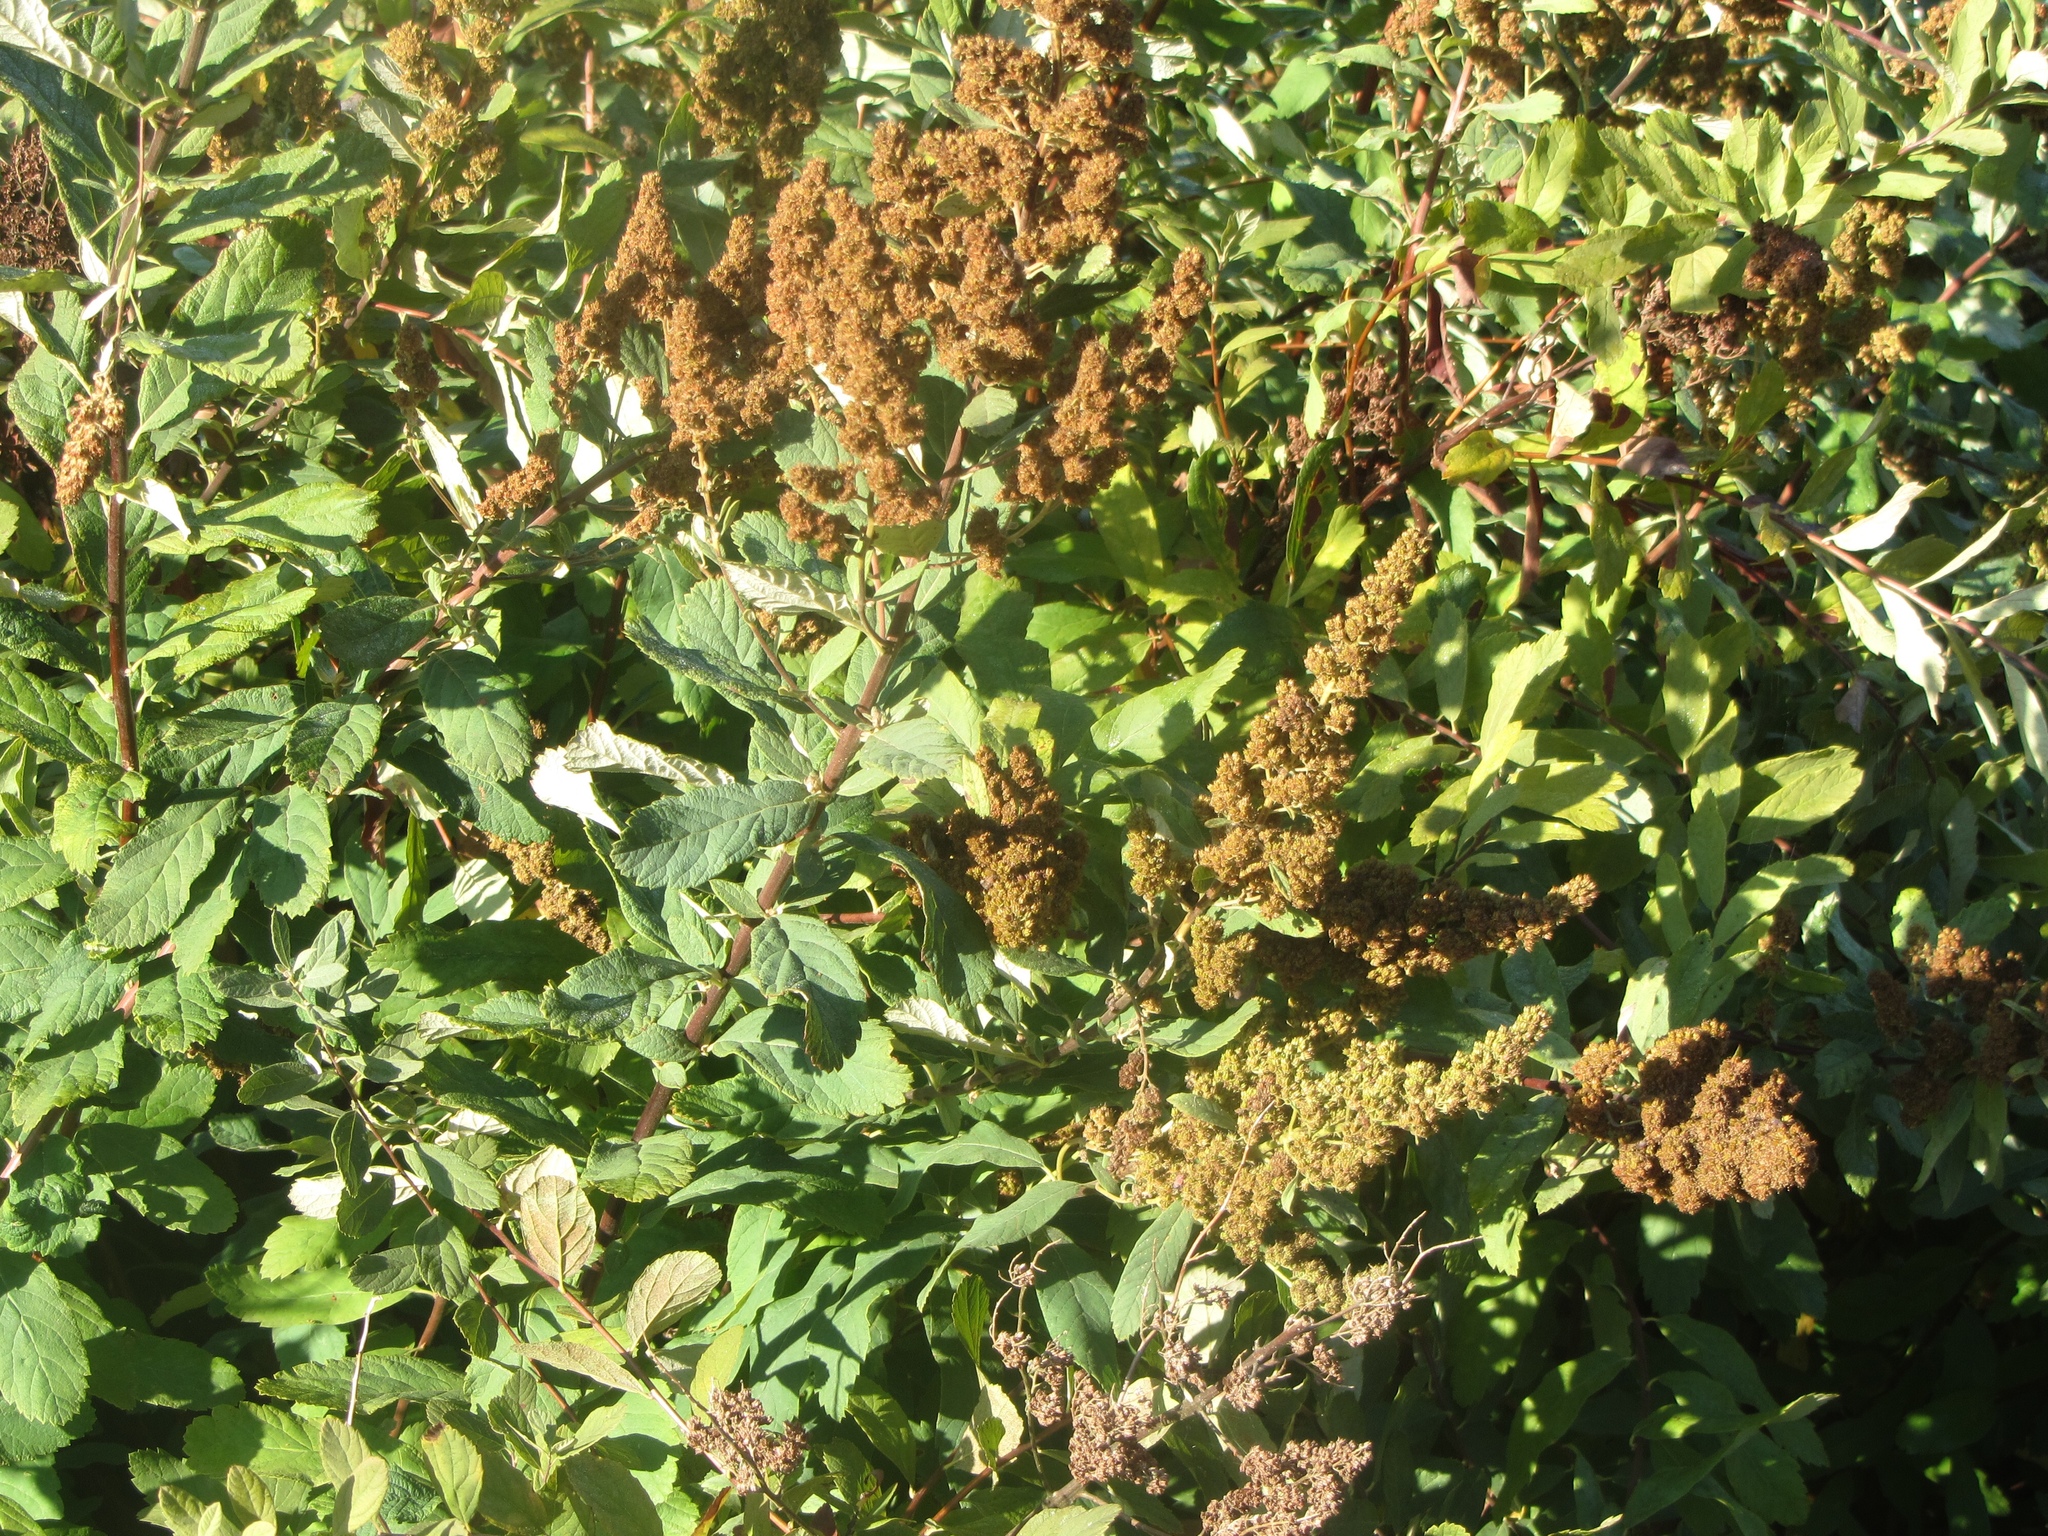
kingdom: Plantae
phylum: Tracheophyta
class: Magnoliopsida
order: Rosales
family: Rosaceae
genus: Spiraea
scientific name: Spiraea douglasii
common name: Steeplebush
